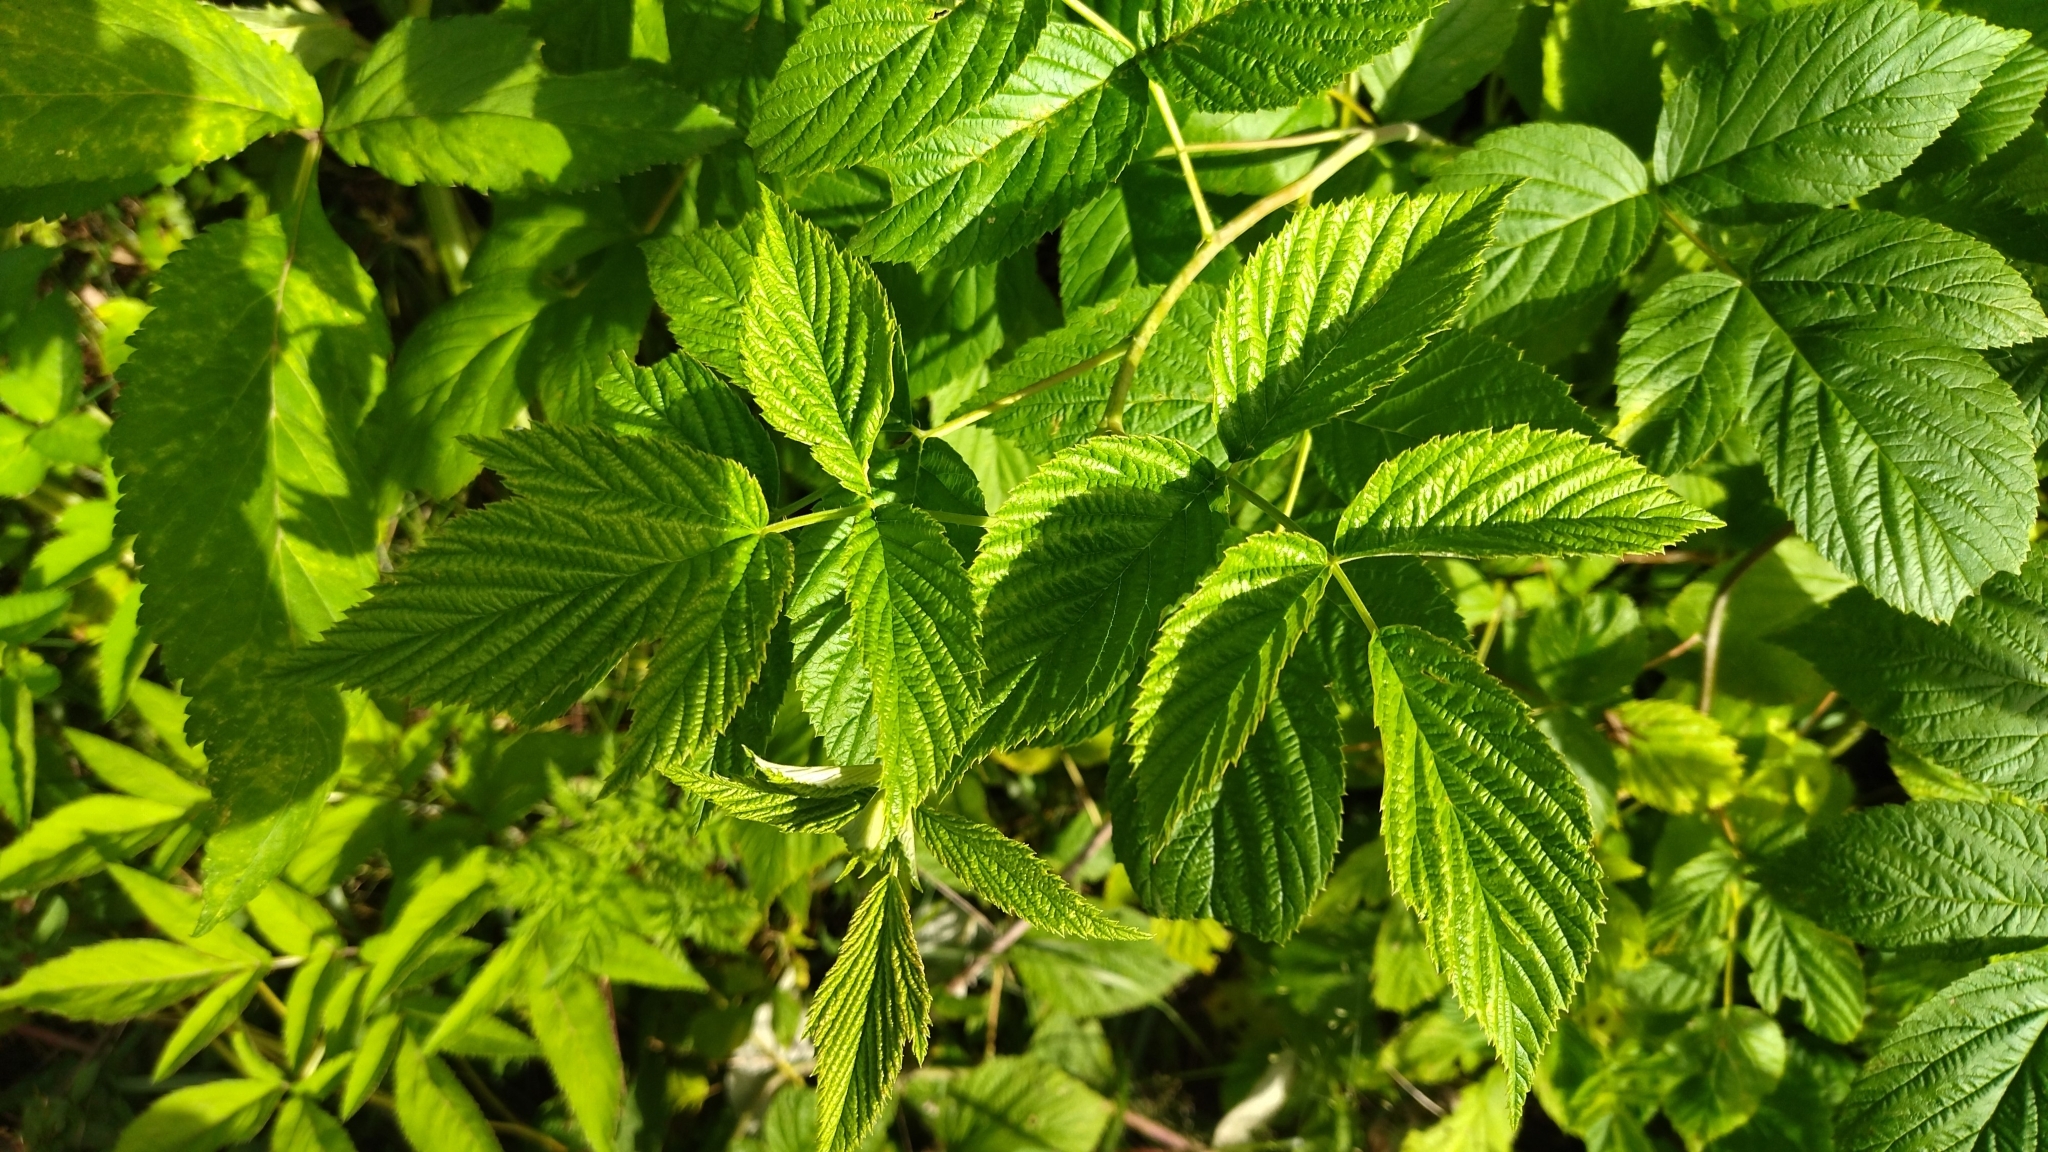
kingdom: Plantae
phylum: Tracheophyta
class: Magnoliopsida
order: Rosales
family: Rosaceae
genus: Rubus
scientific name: Rubus idaeus
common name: Raspberry
